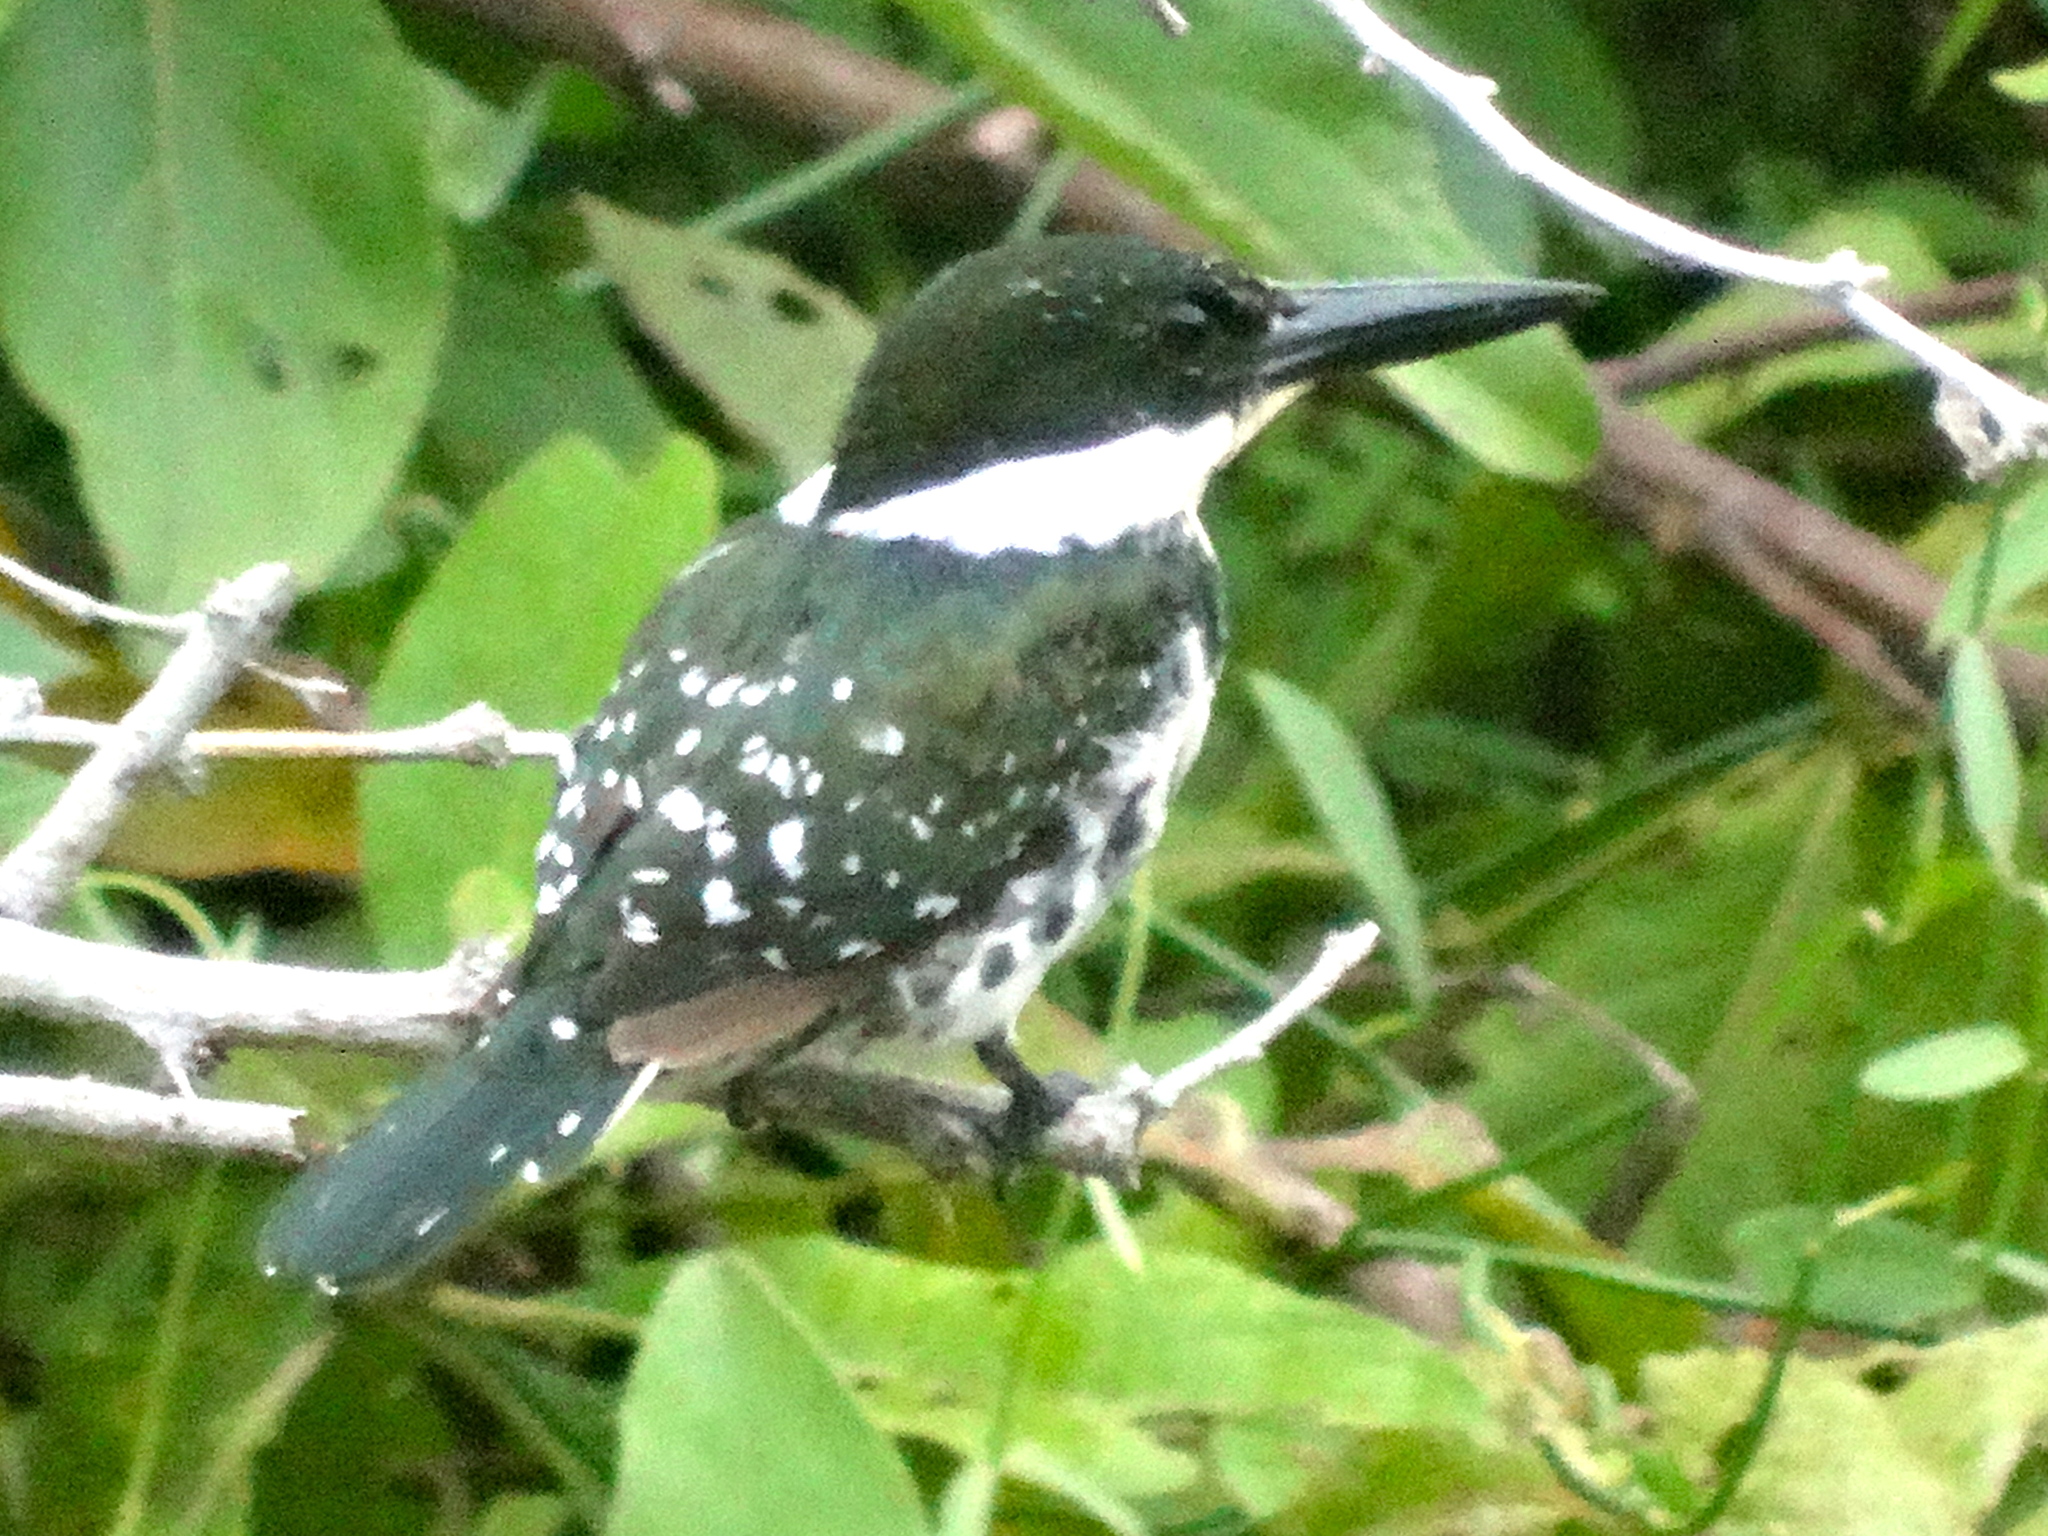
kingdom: Animalia
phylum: Chordata
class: Aves
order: Coraciiformes
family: Alcedinidae
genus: Chloroceryle
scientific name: Chloroceryle americana
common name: Green kingfisher
